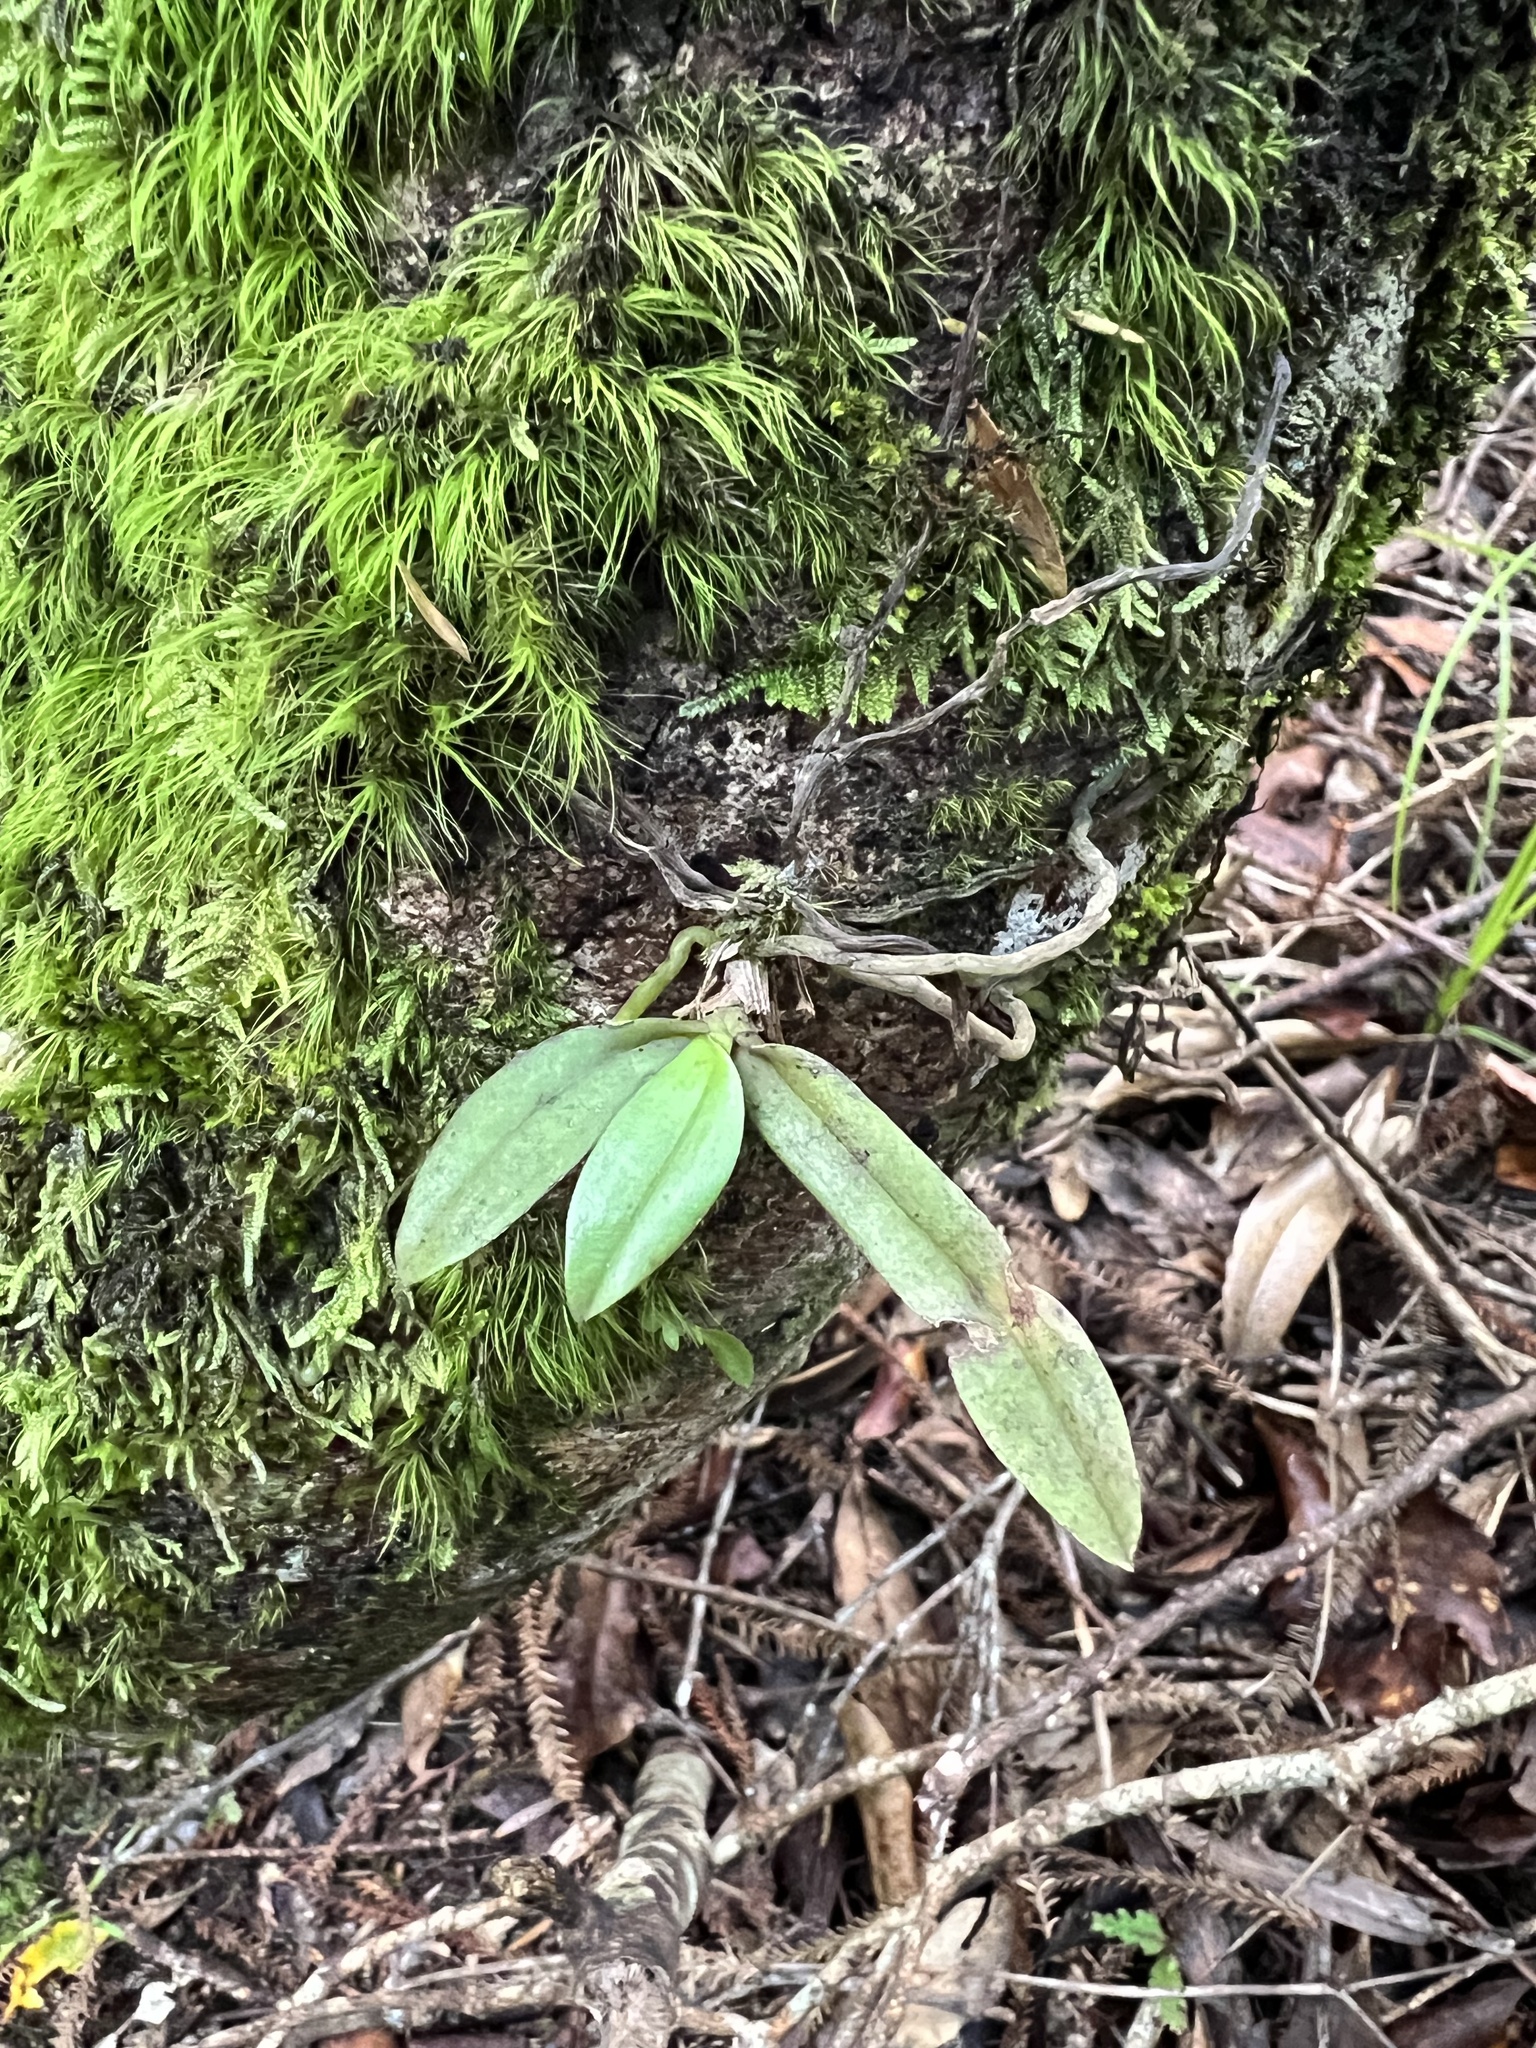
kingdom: Plantae
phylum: Tracheophyta
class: Liliopsida
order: Asparagales
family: Orchidaceae
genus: Drymoanthus
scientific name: Drymoanthus adversus
